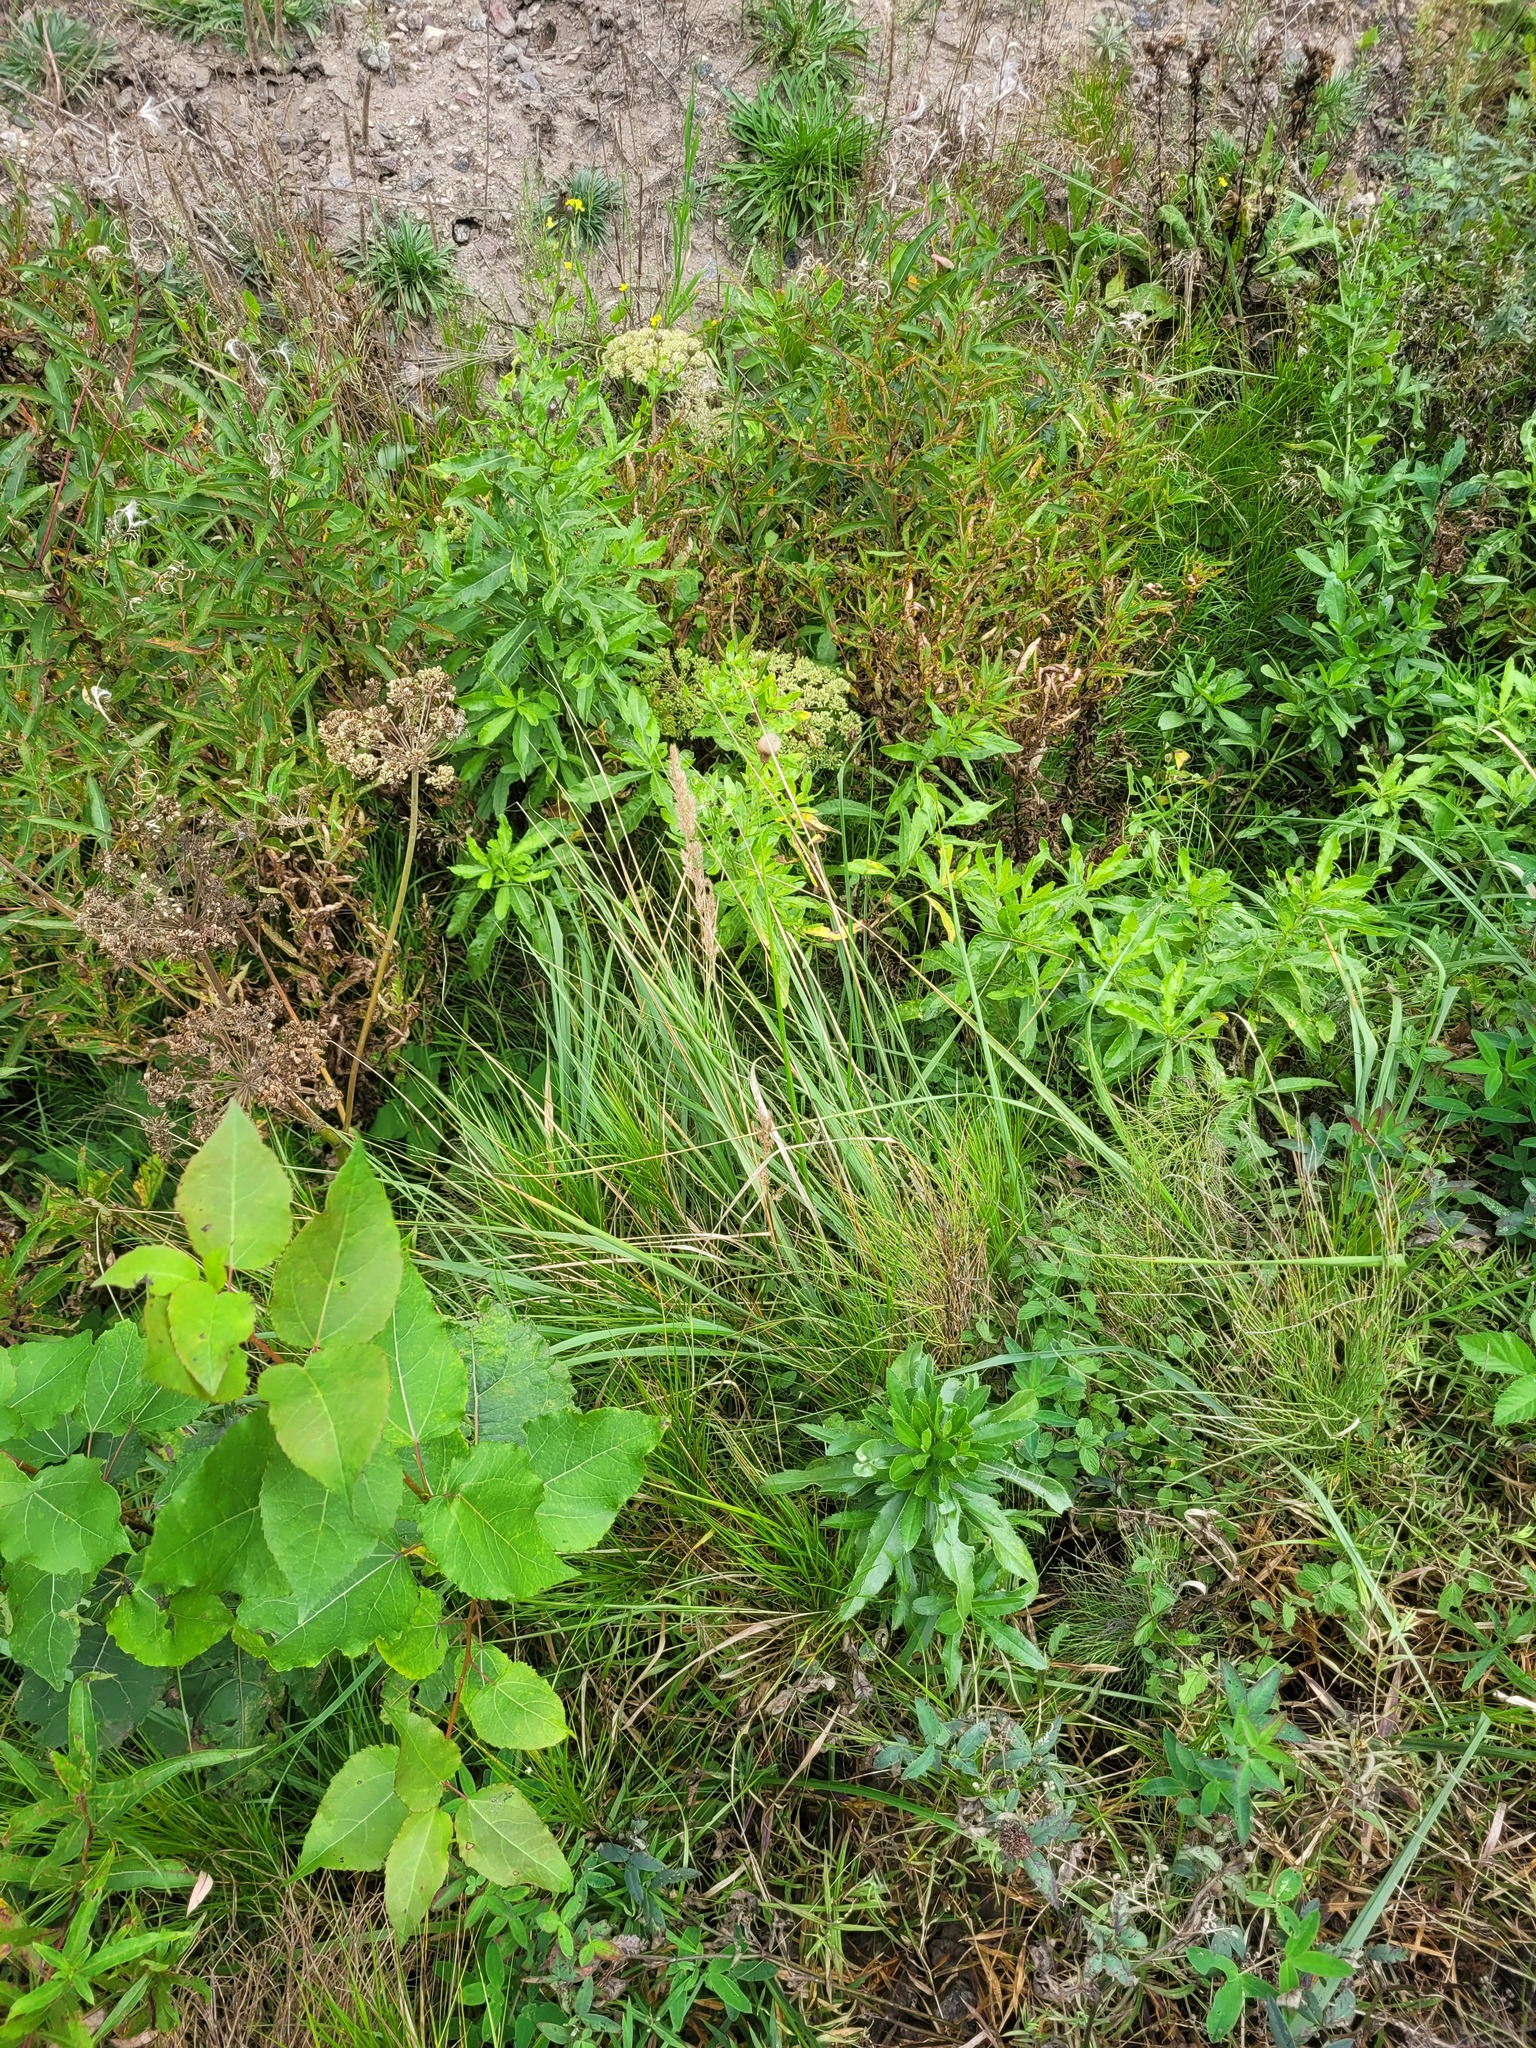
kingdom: Plantae
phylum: Tracheophyta
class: Liliopsida
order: Poales
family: Poaceae
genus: Calamagrostis
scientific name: Calamagrostis canescens
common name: Purple small-reed
